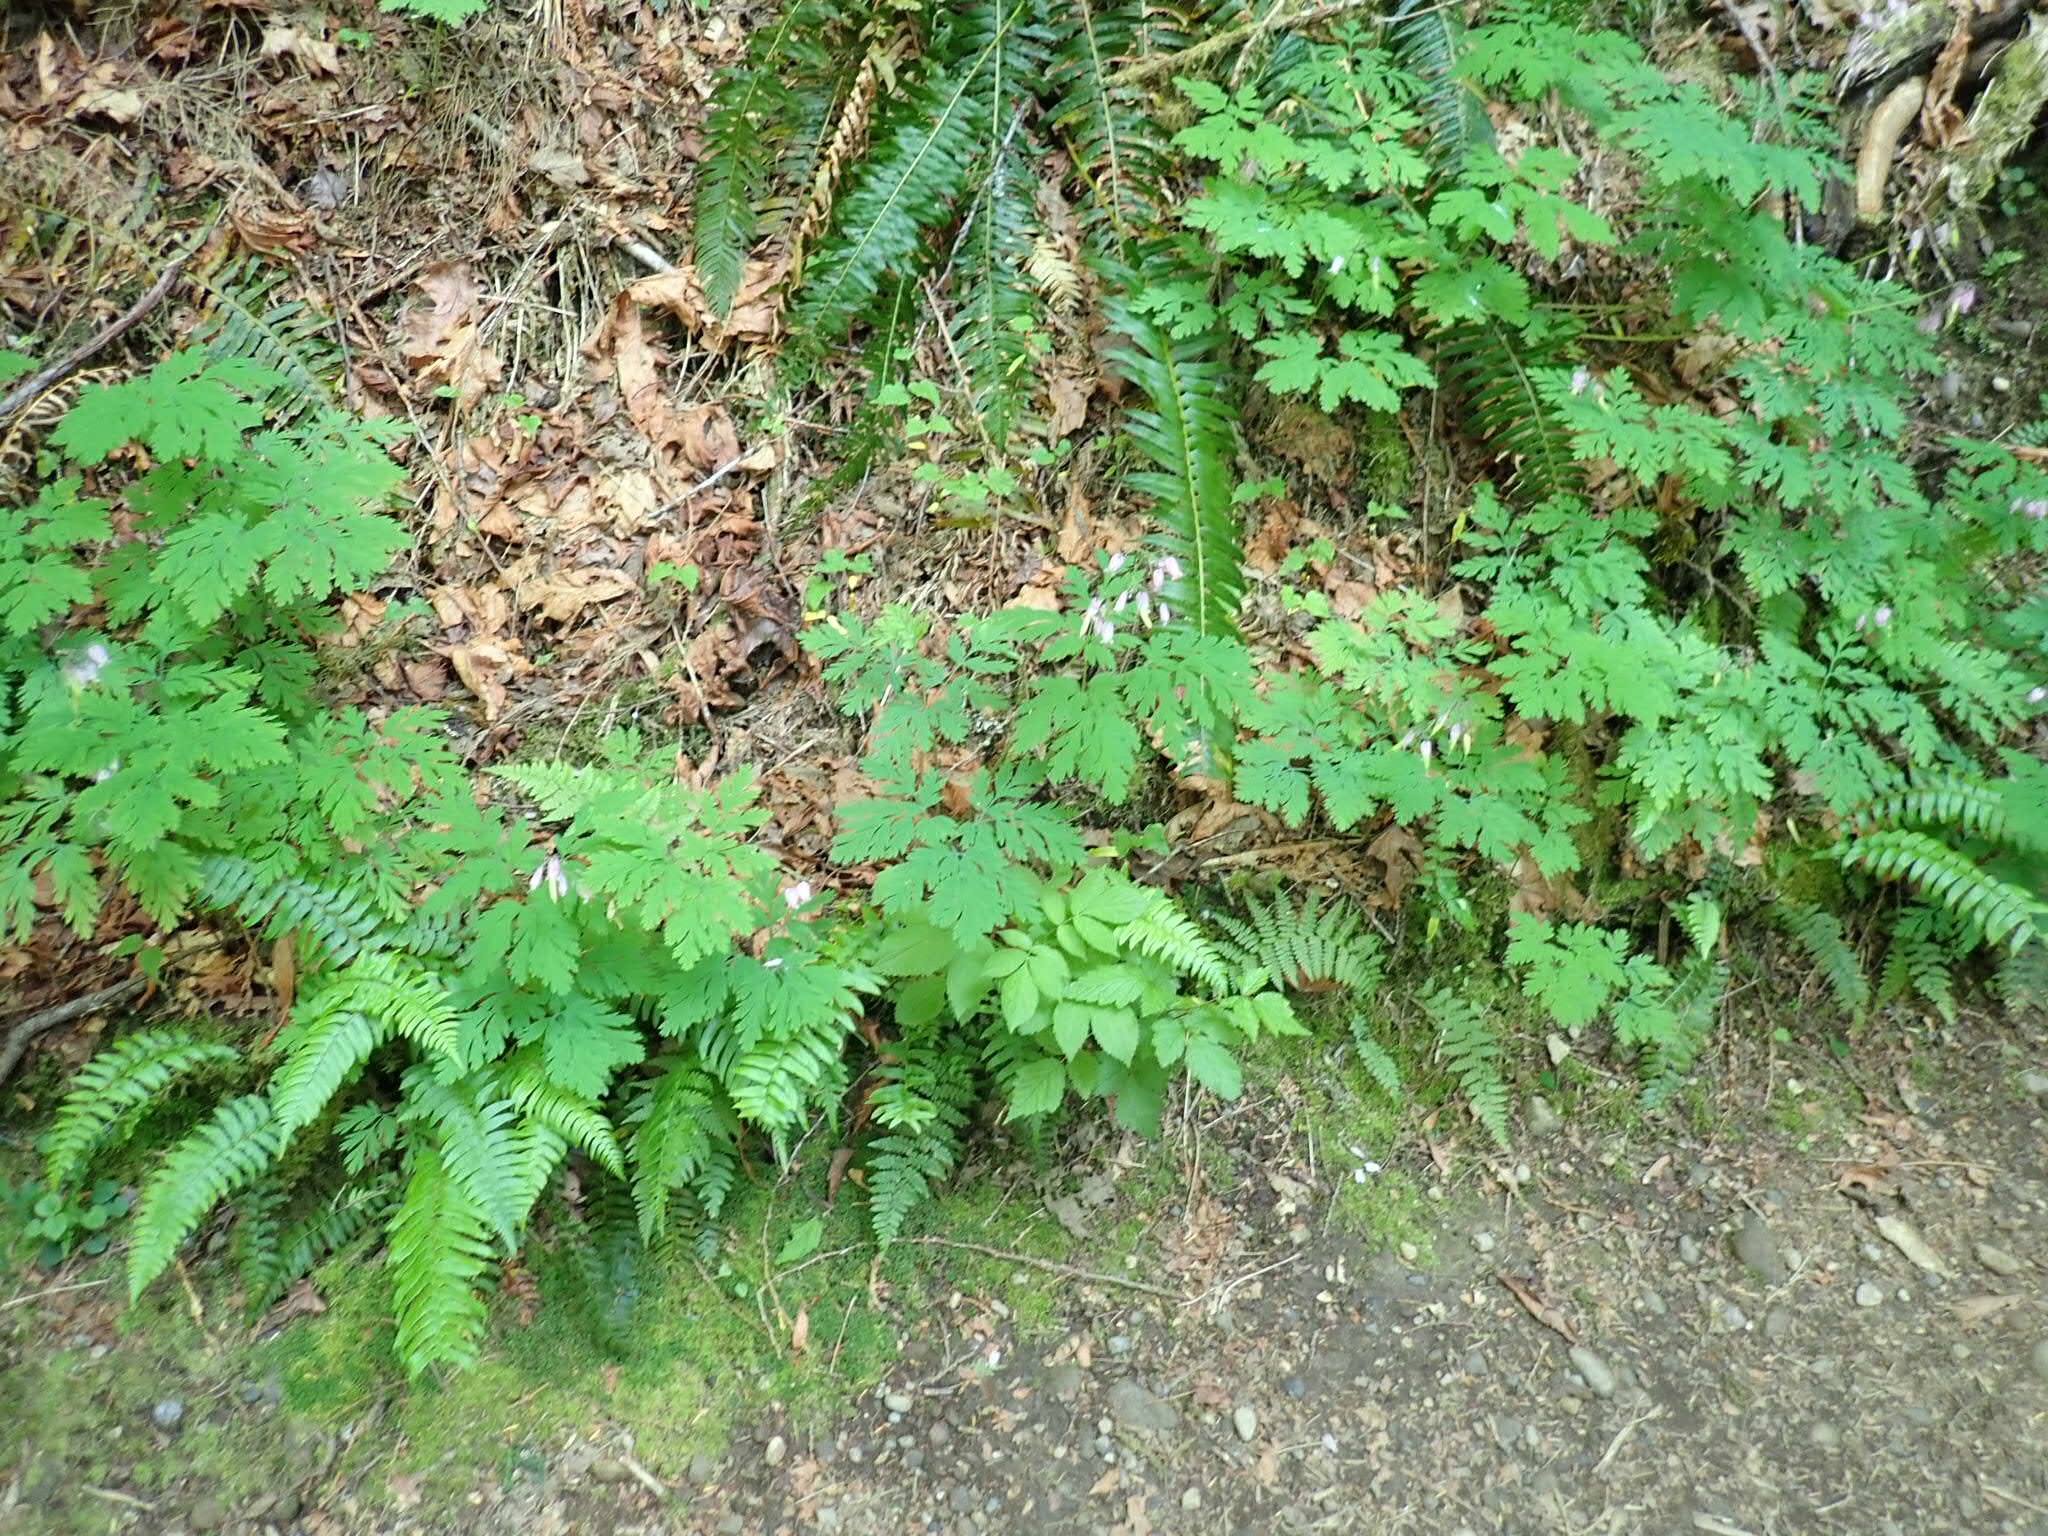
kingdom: Plantae
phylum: Tracheophyta
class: Magnoliopsida
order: Ranunculales
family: Papaveraceae
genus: Dicentra
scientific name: Dicentra formosa
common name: Bleeding-heart
